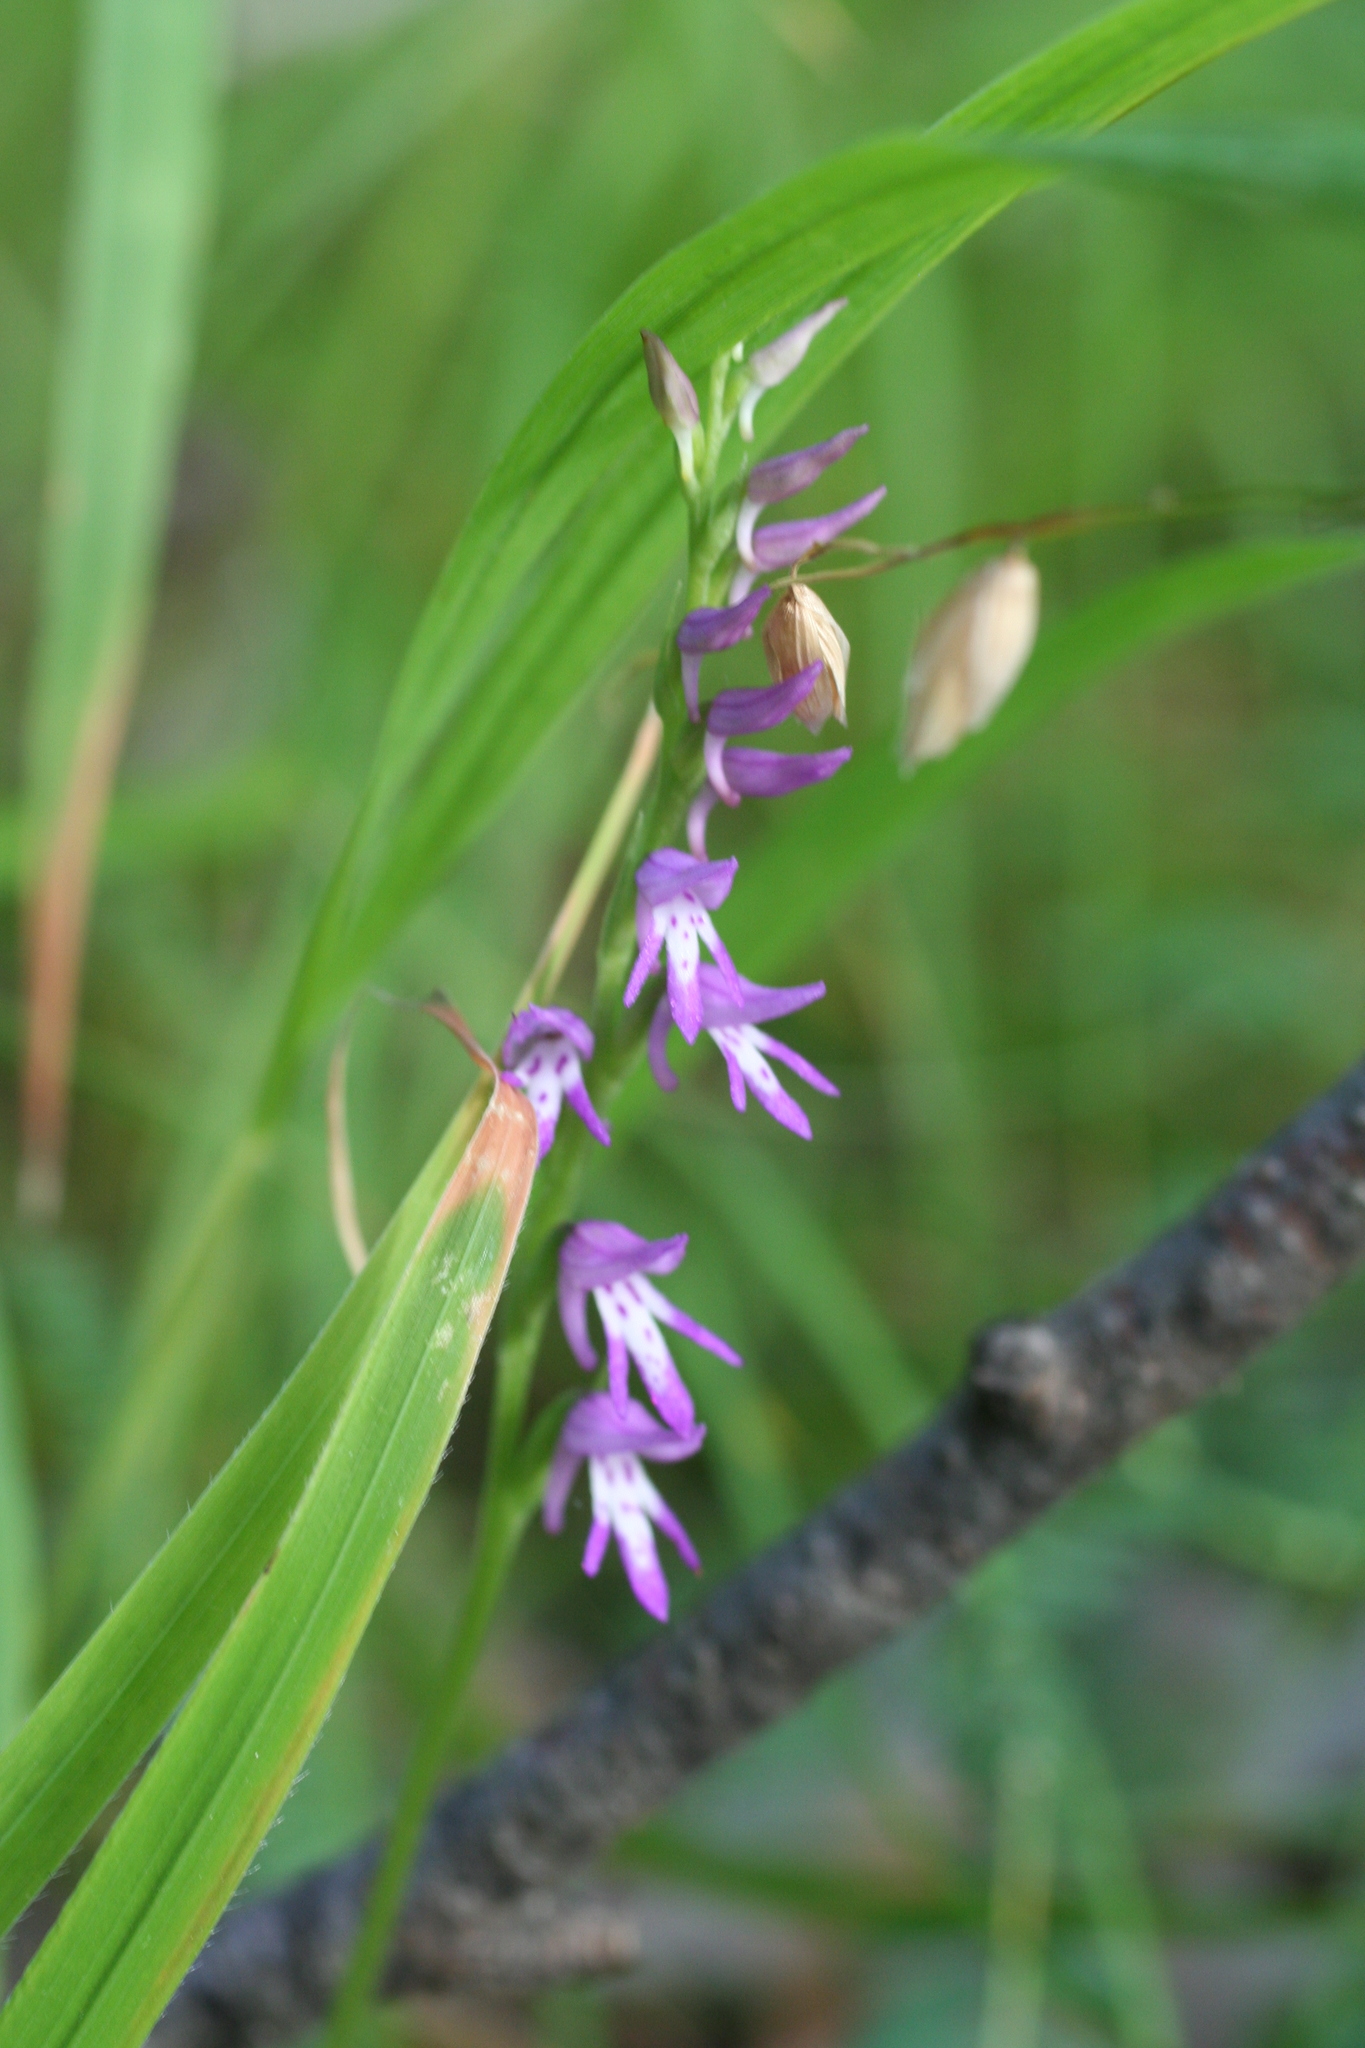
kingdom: Plantae
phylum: Tracheophyta
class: Liliopsida
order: Asparagales
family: Orchidaceae
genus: Hemipilia
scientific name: Hemipilia cucullata
